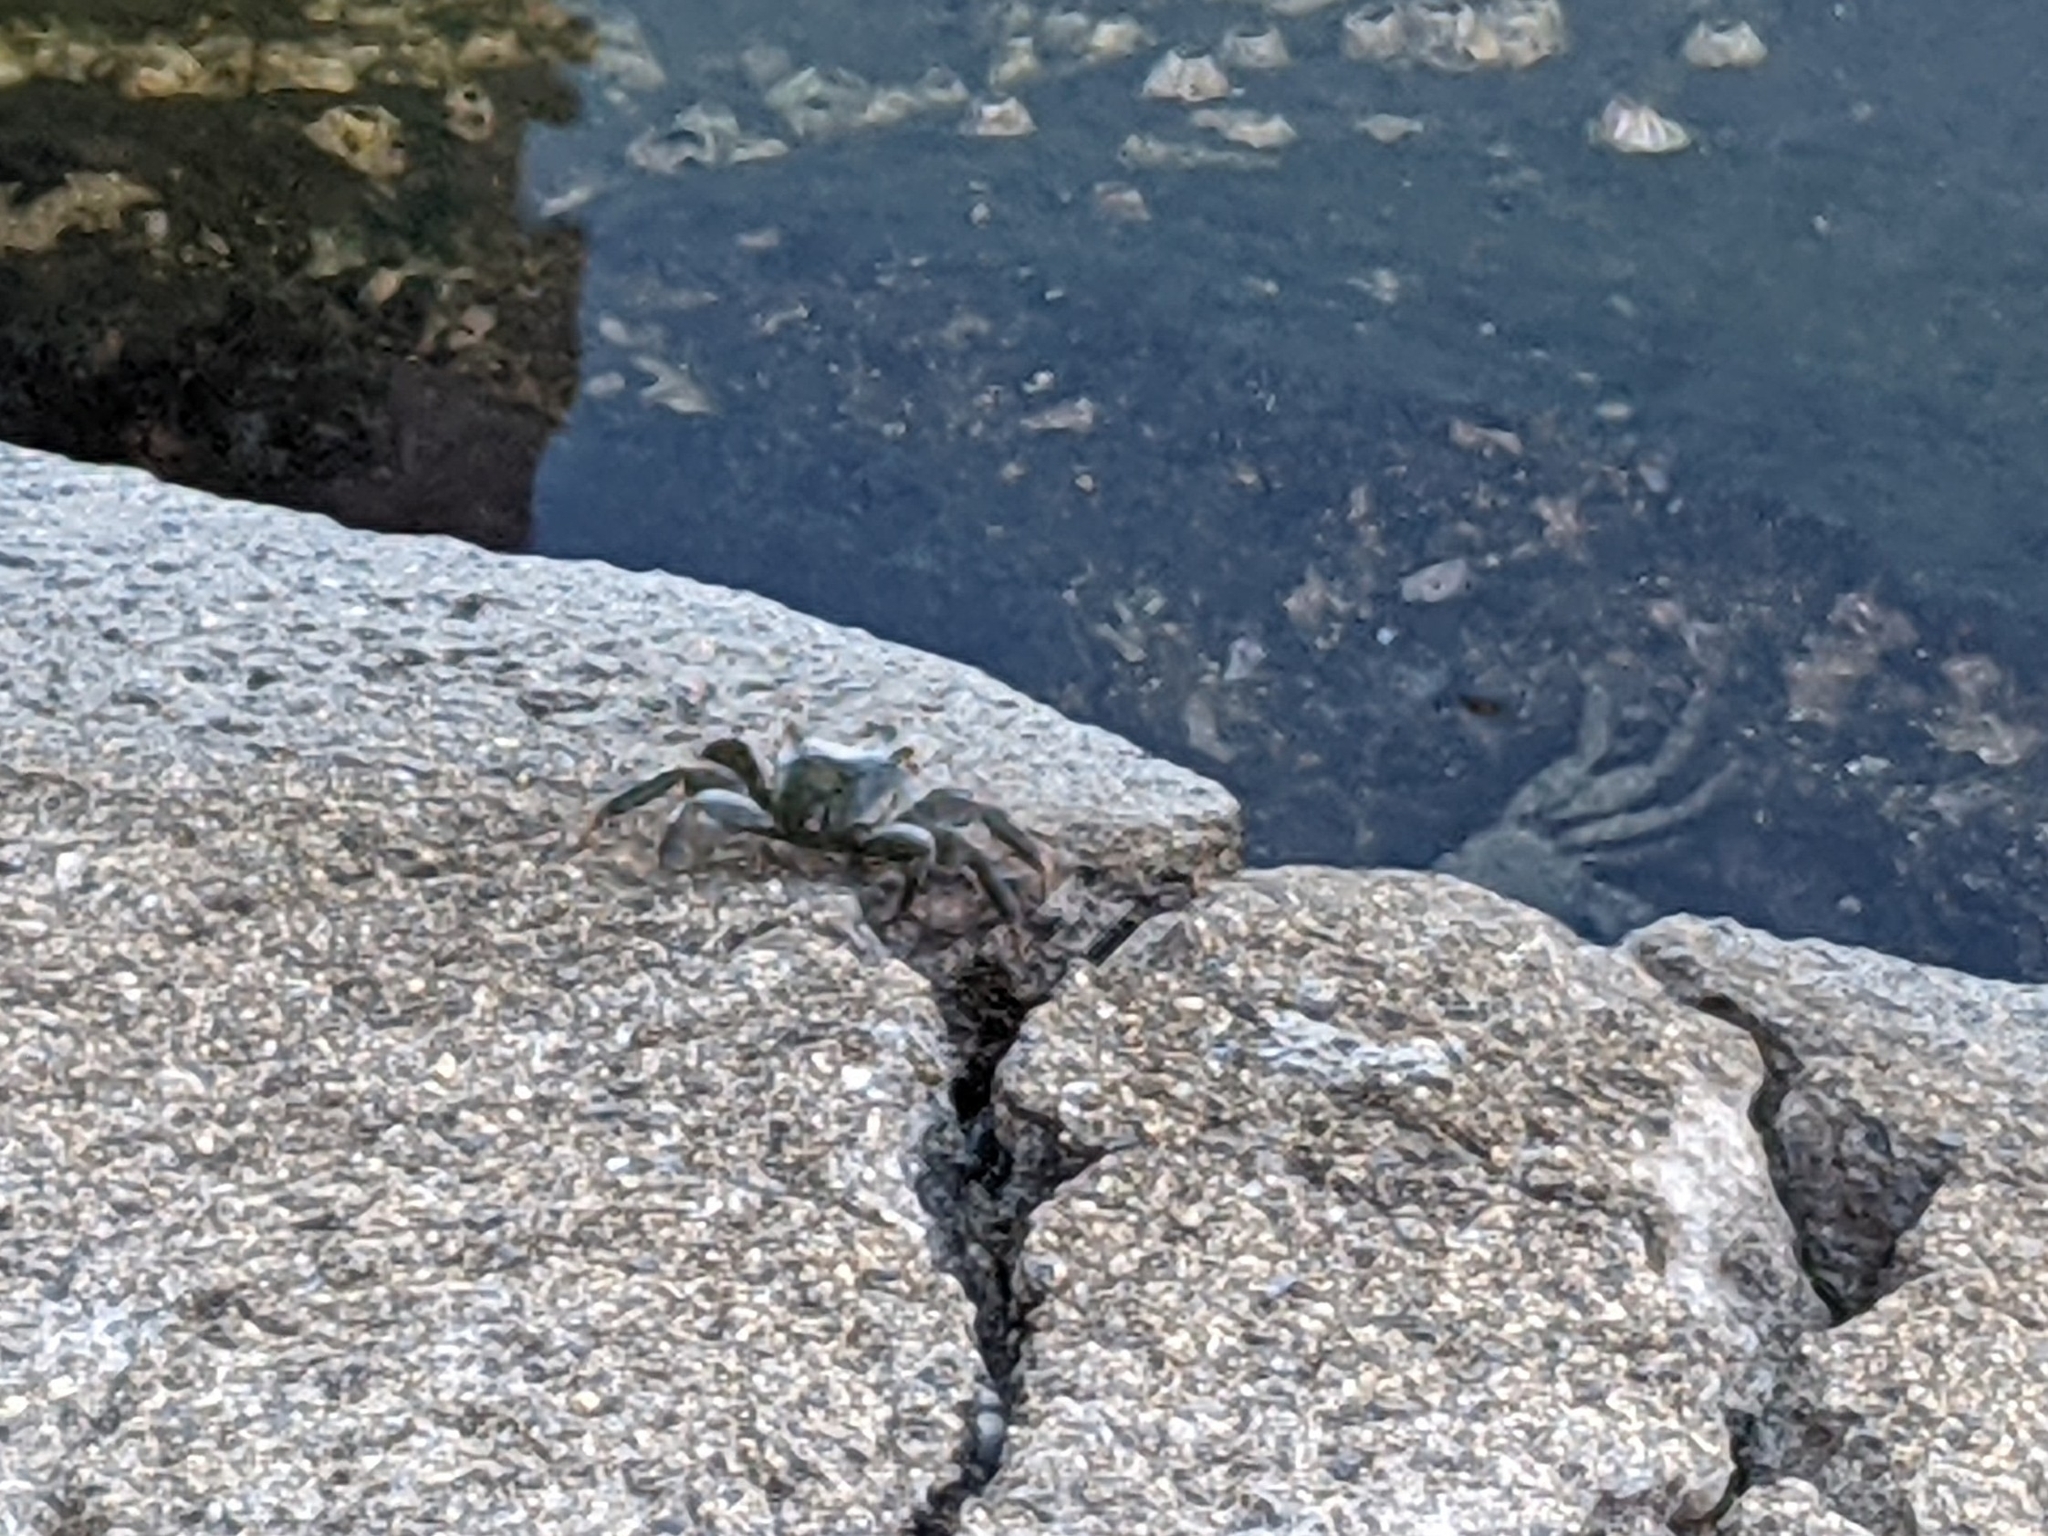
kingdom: Animalia
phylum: Arthropoda
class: Malacostraca
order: Decapoda
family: Grapsidae
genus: Grapsus
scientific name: Grapsus tenuicrustatus
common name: Natal lightfoot crab
